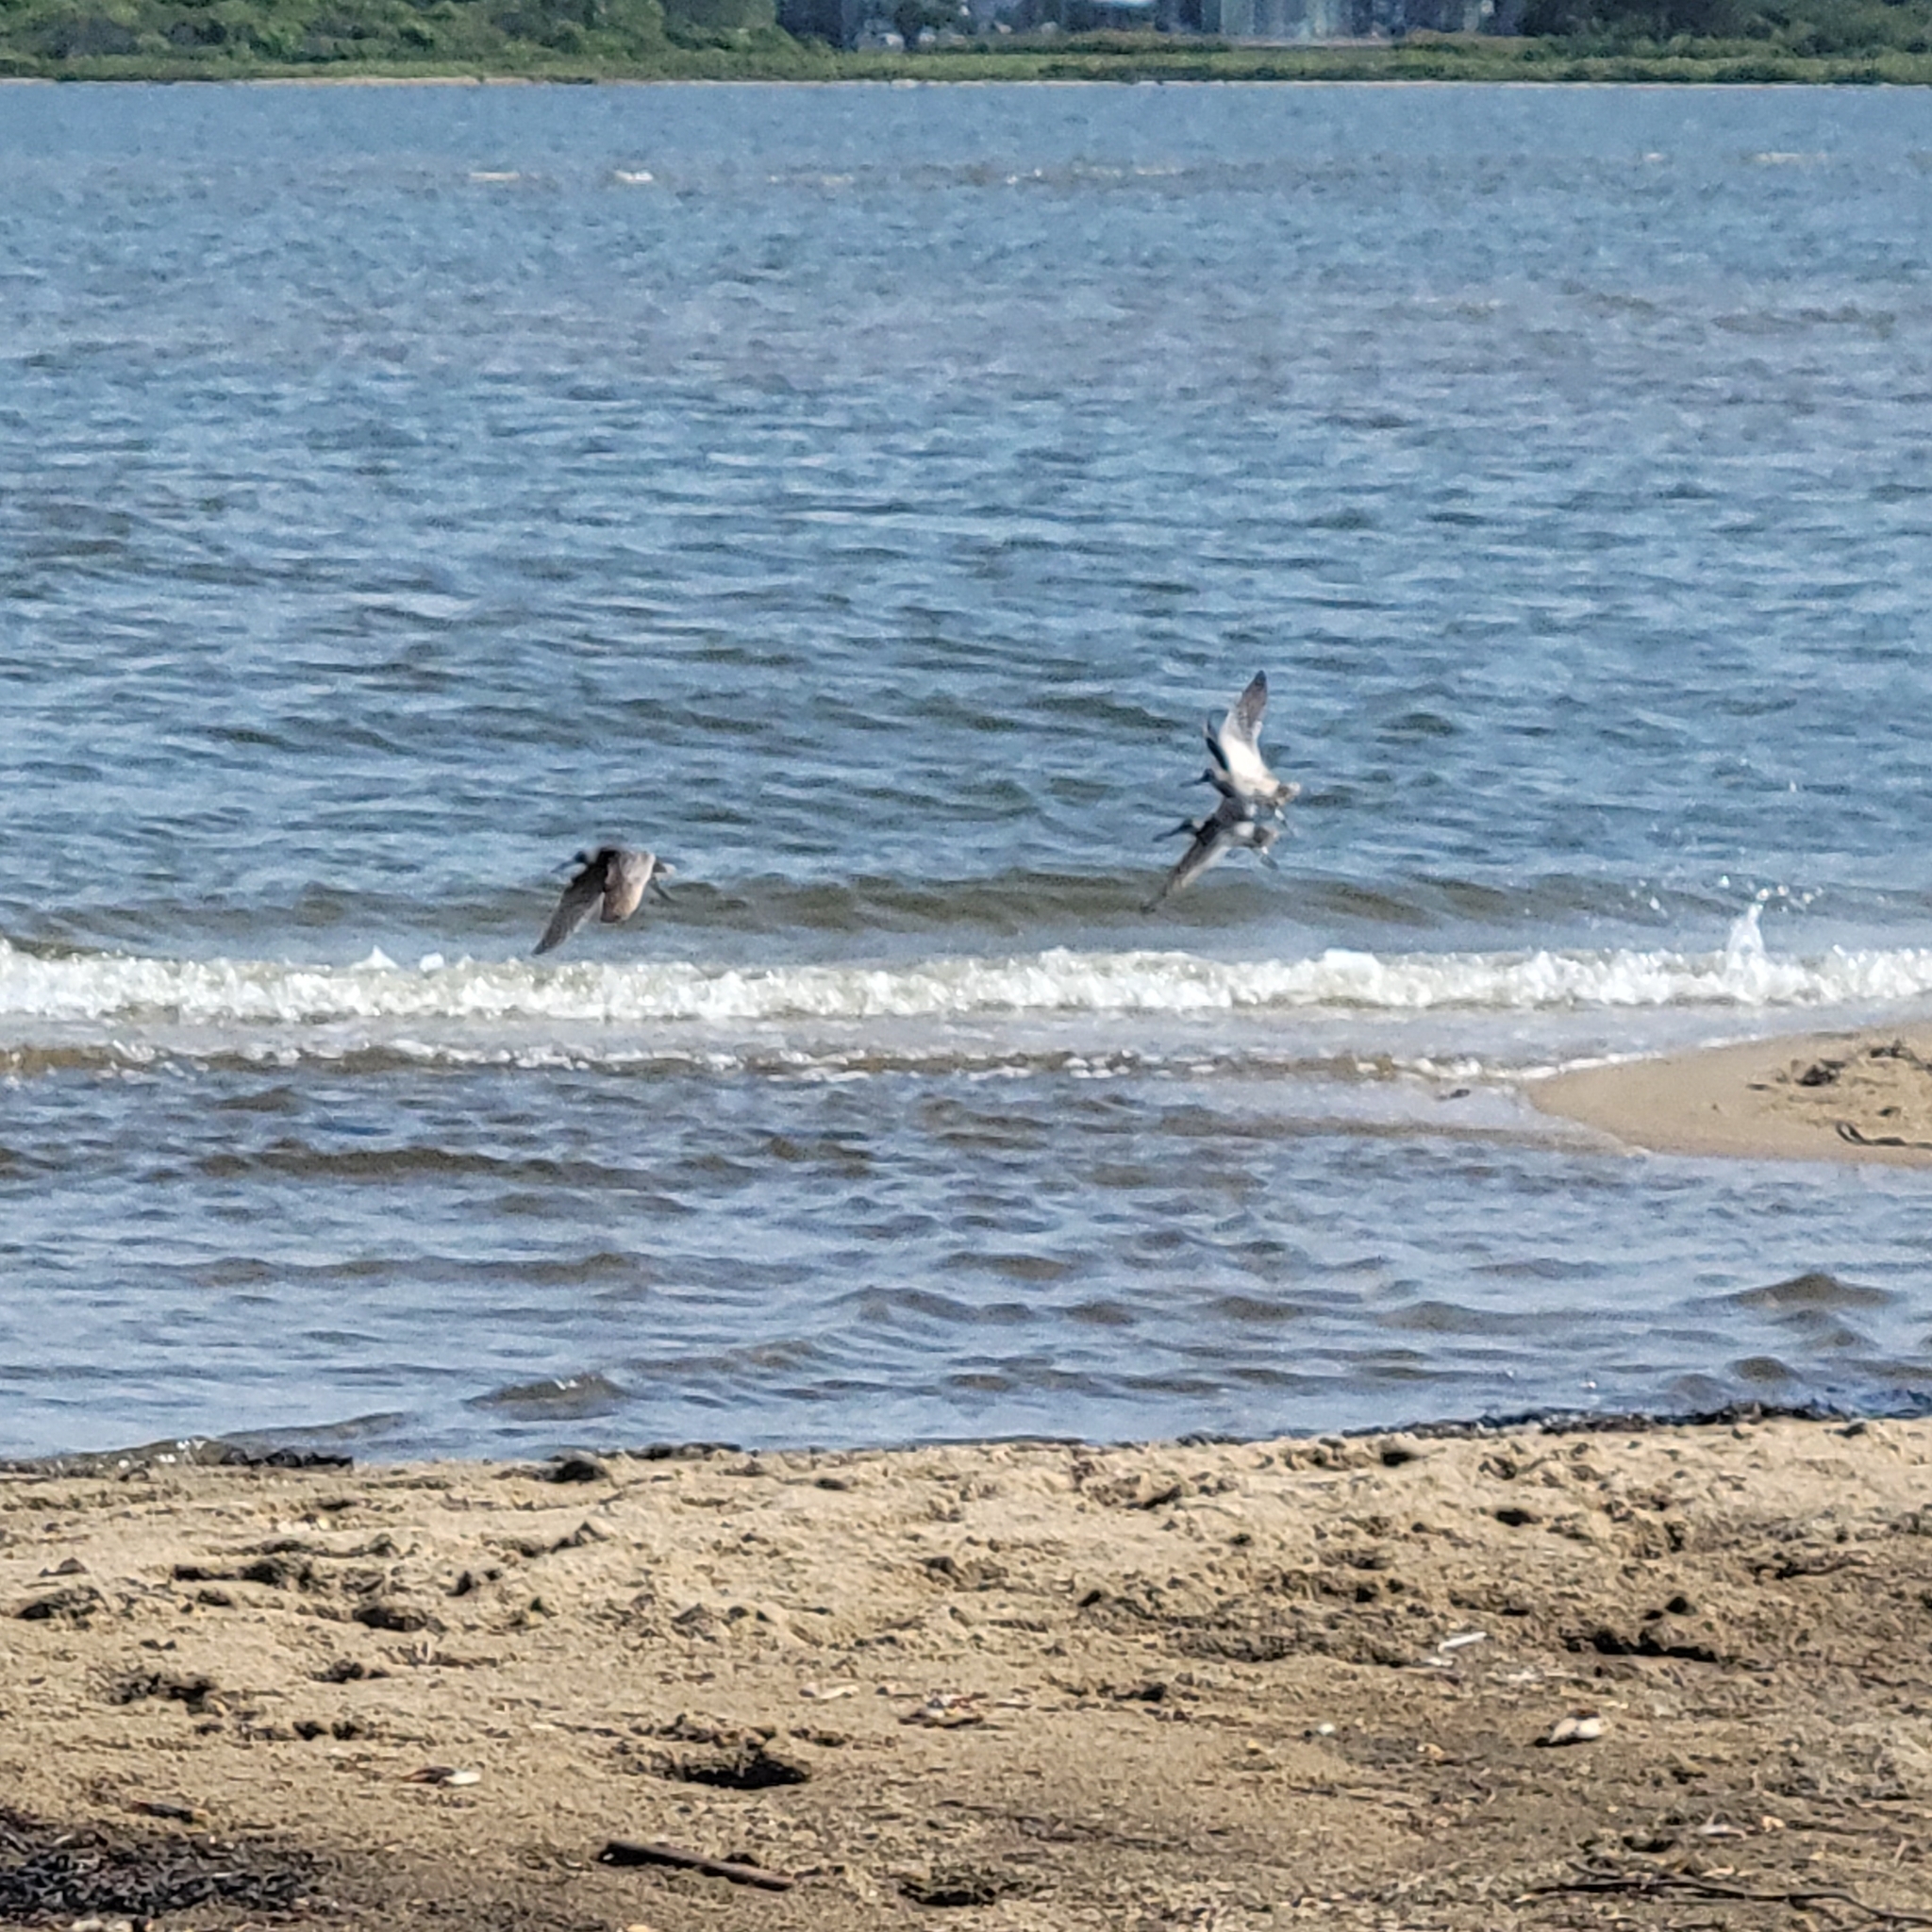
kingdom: Animalia
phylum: Chordata
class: Aves
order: Charadriiformes
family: Scolopacidae
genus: Limnodromus
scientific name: Limnodromus griseus
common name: Short-billed dowitcher
